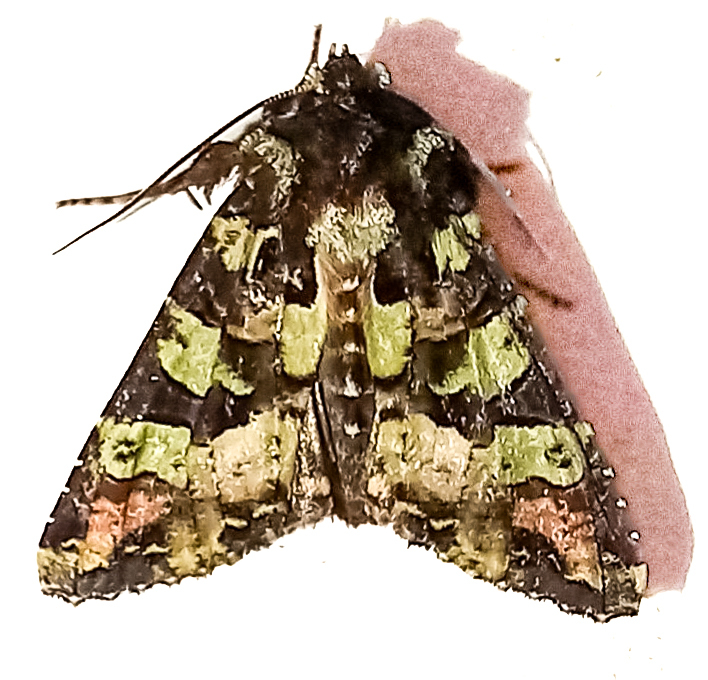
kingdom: Animalia
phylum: Arthropoda
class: Insecta
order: Lepidoptera
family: Noctuidae
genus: Meterana
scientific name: Meterana pauca
